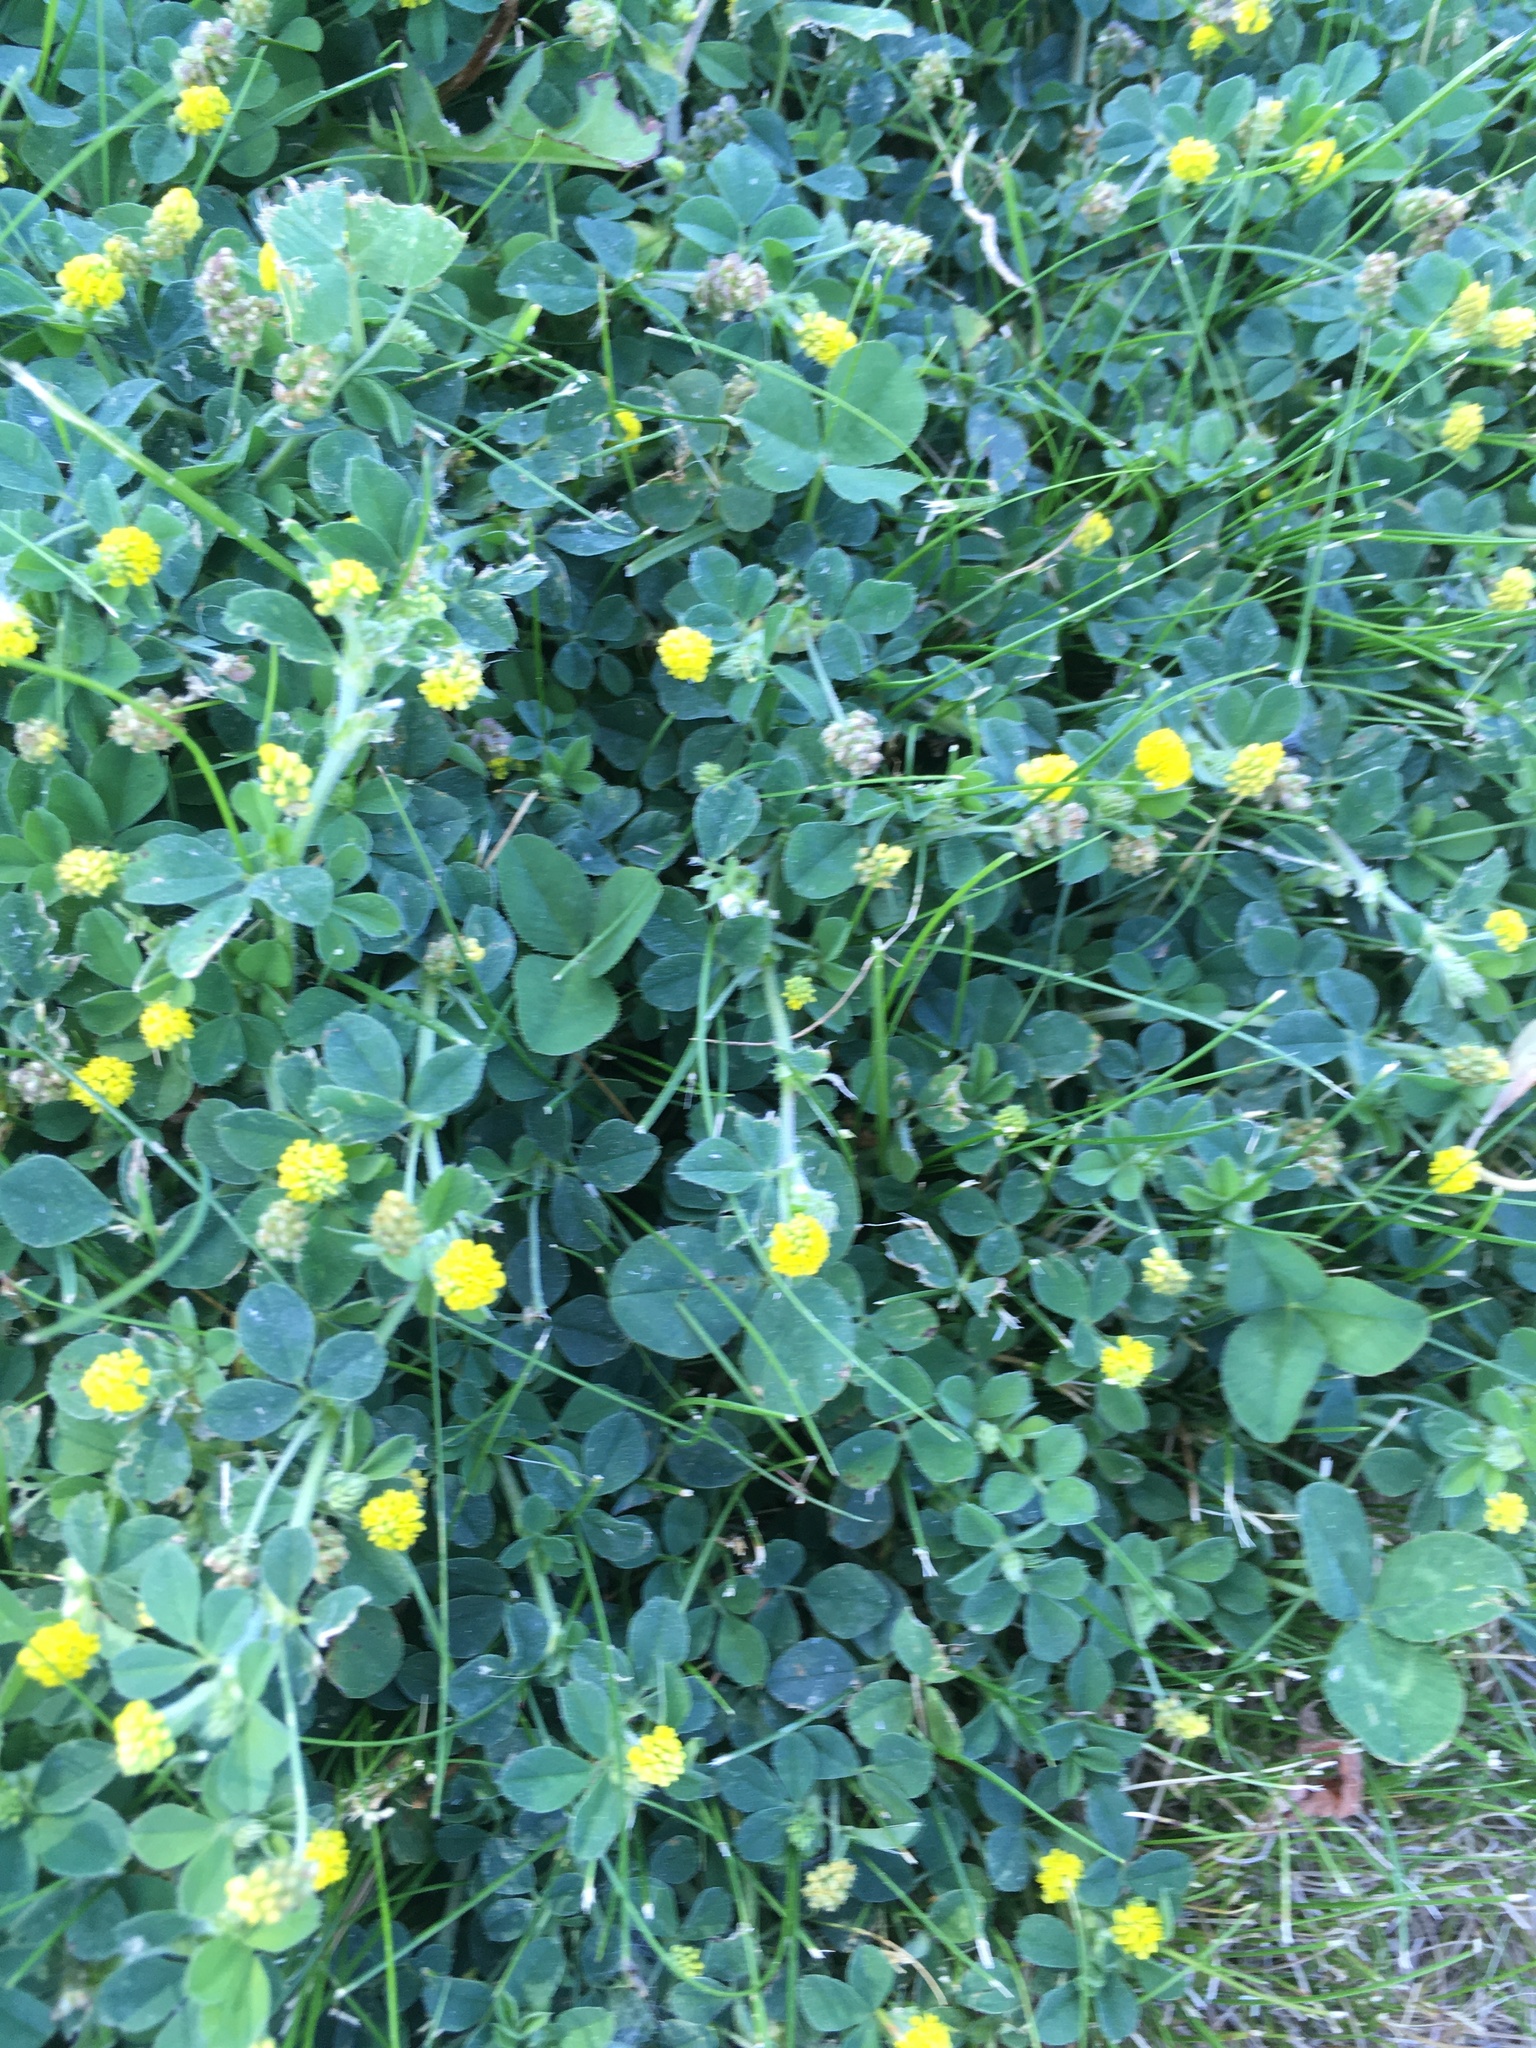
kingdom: Plantae
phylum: Tracheophyta
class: Magnoliopsida
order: Fabales
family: Fabaceae
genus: Medicago
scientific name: Medicago lupulina
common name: Black medick
